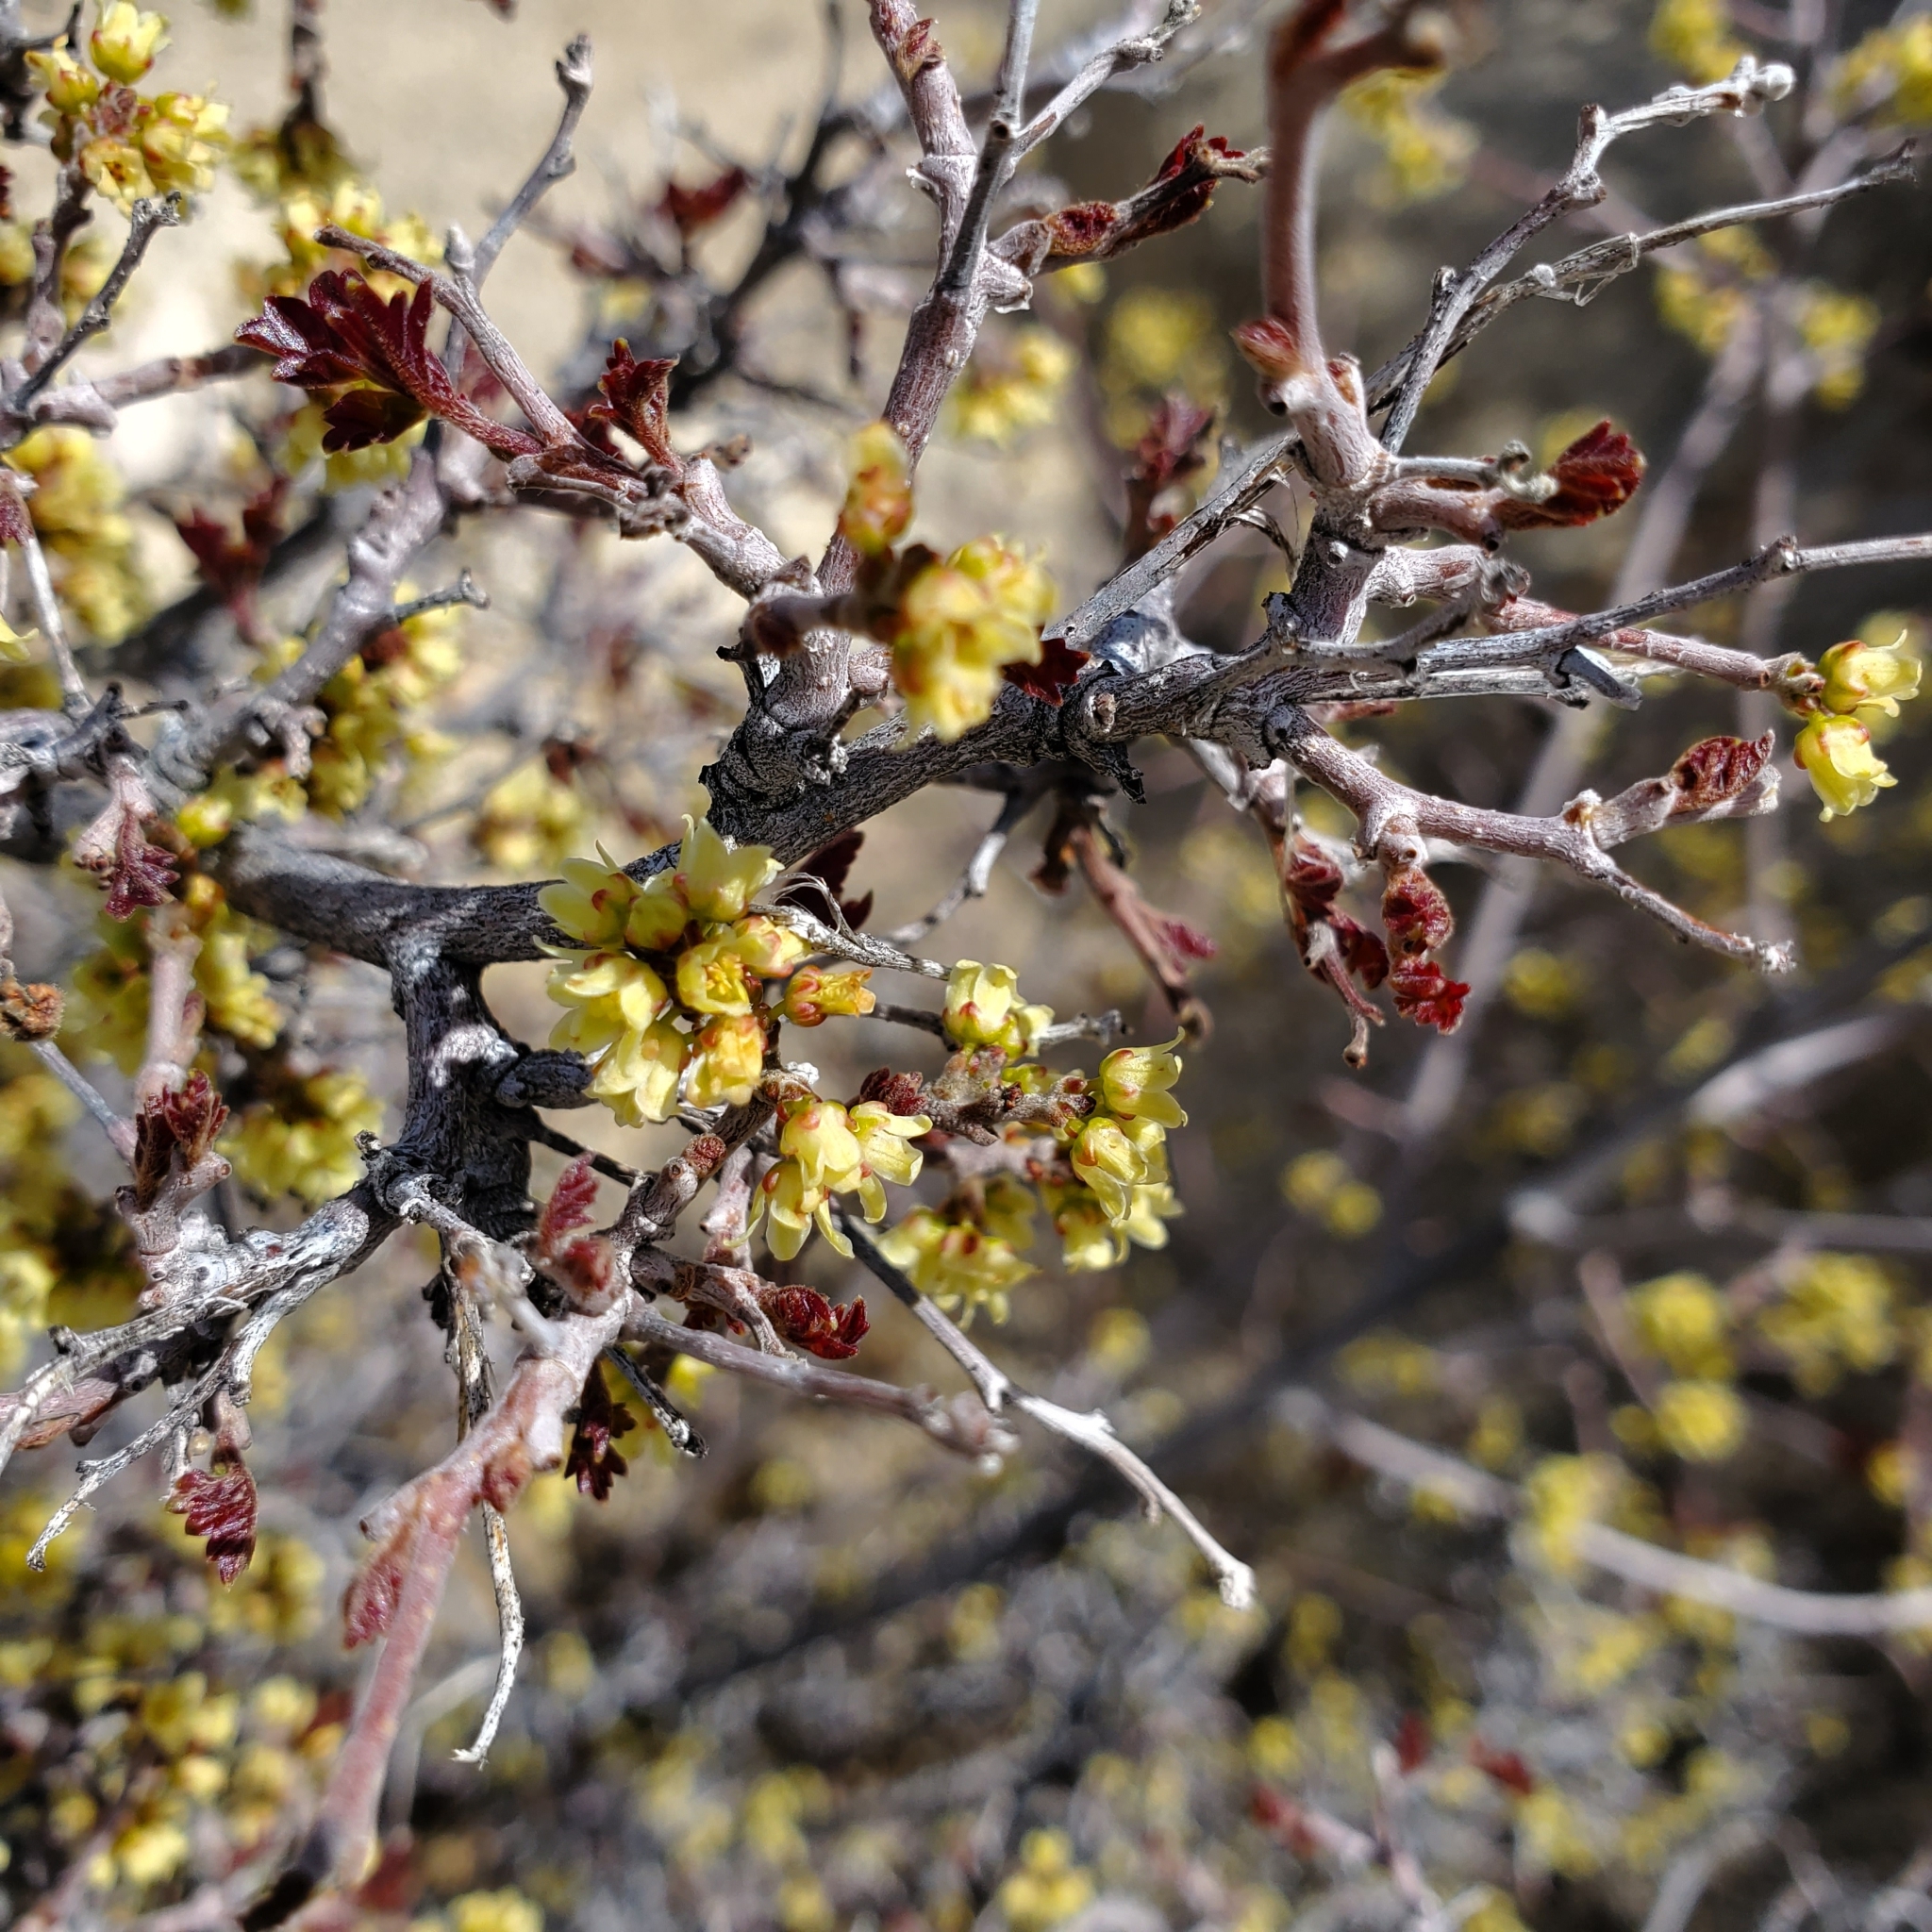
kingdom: Plantae
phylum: Tracheophyta
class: Magnoliopsida
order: Sapindales
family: Anacardiaceae
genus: Rhus
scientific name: Rhus aromatica
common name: Aromatic sumac
